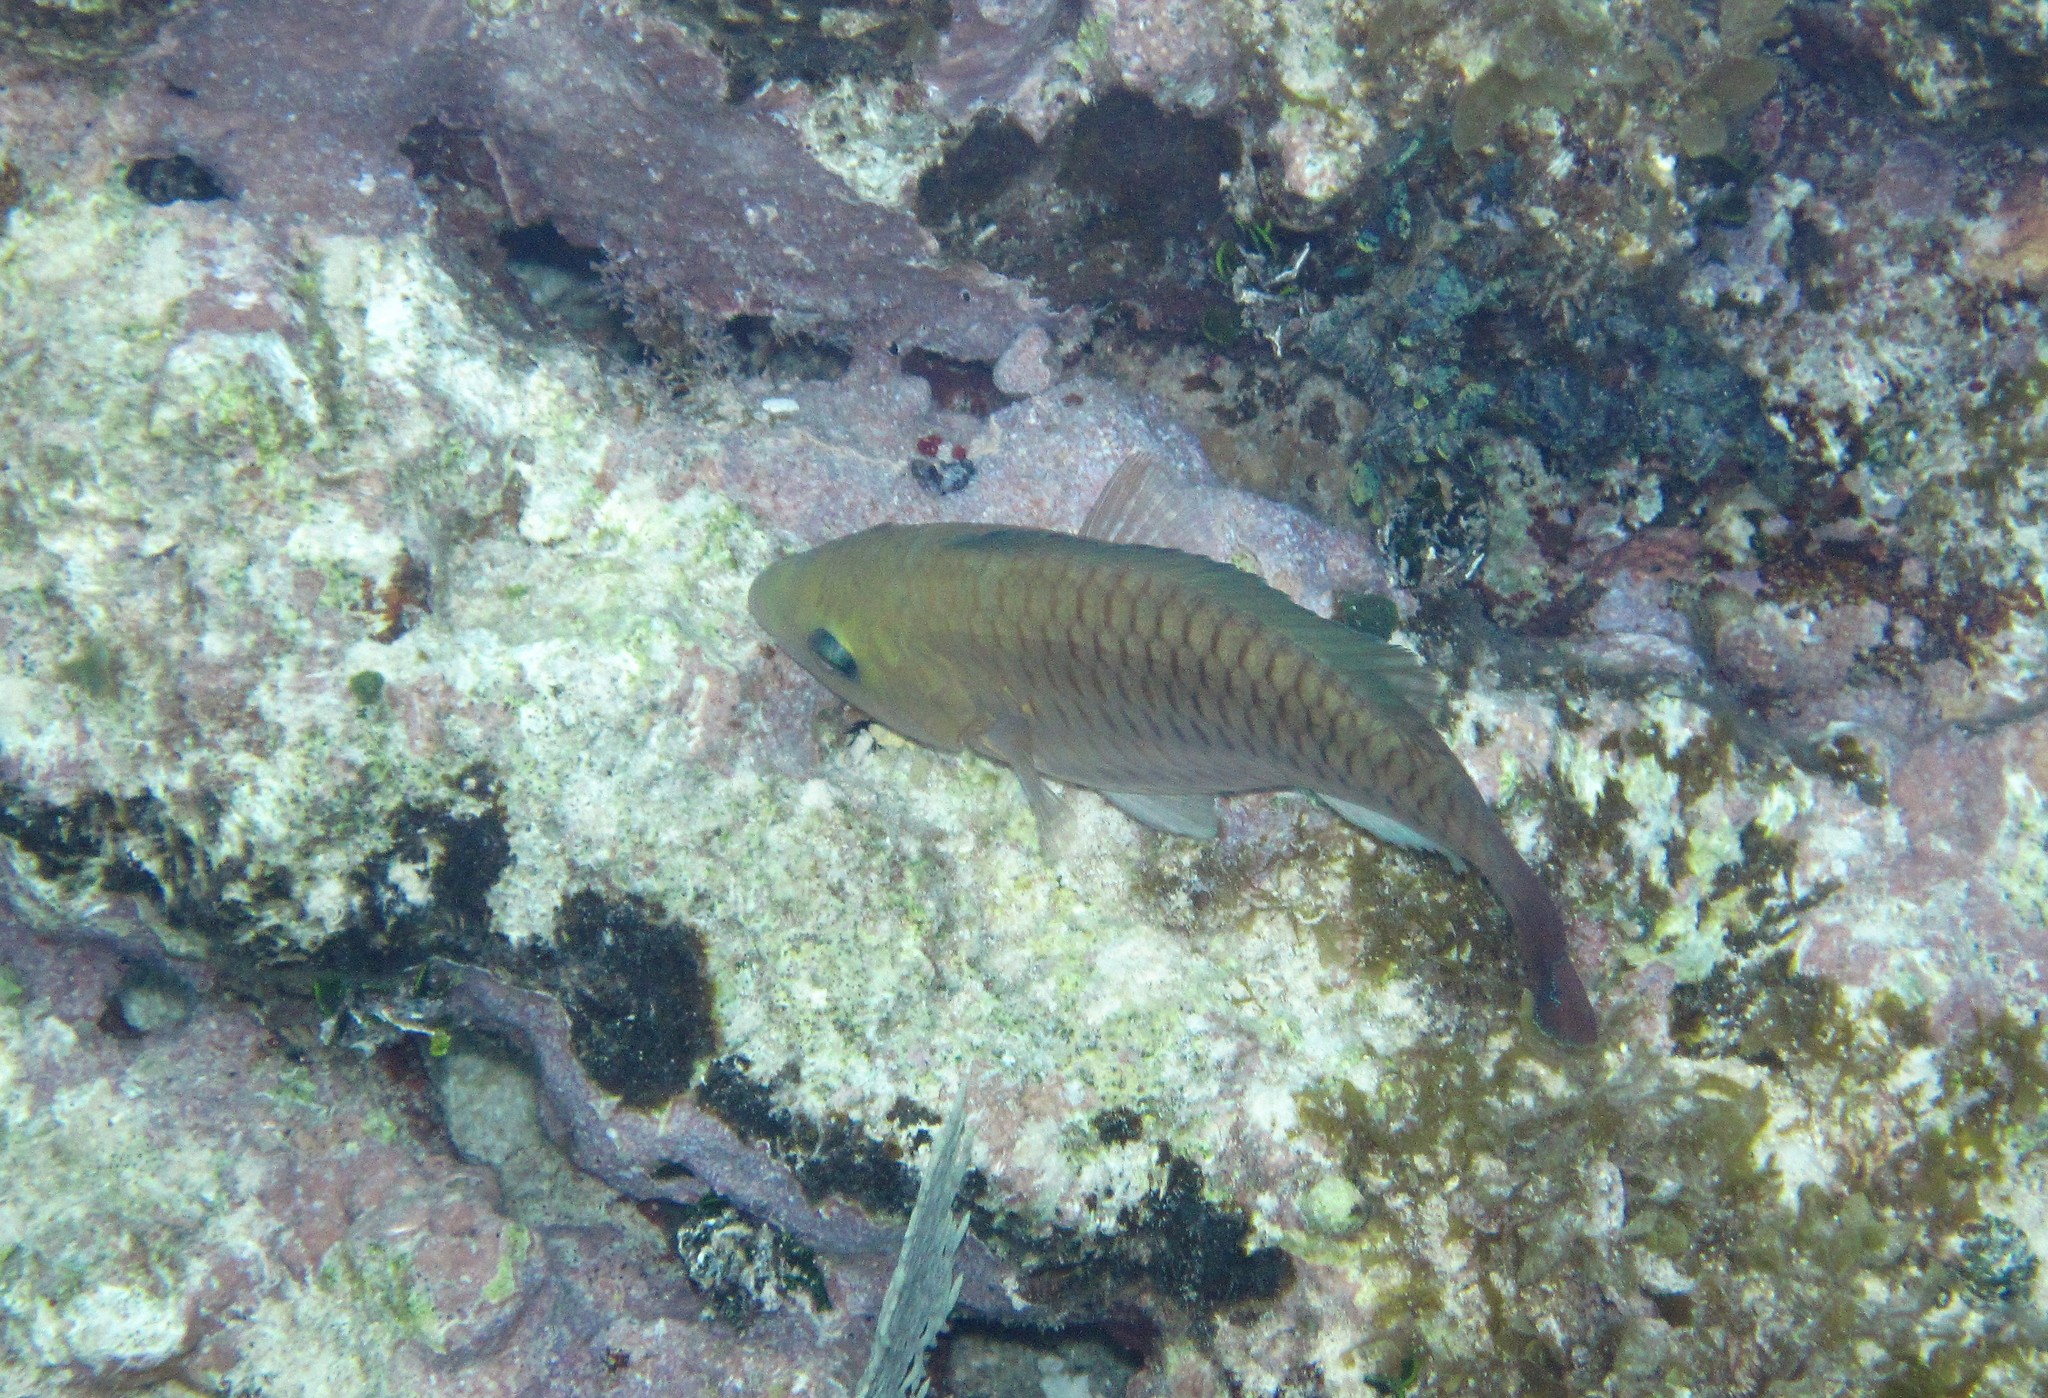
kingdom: Animalia
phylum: Chordata
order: Perciformes
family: Scaridae
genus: Scarus
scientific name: Scarus vetula
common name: Queen parrotfish
